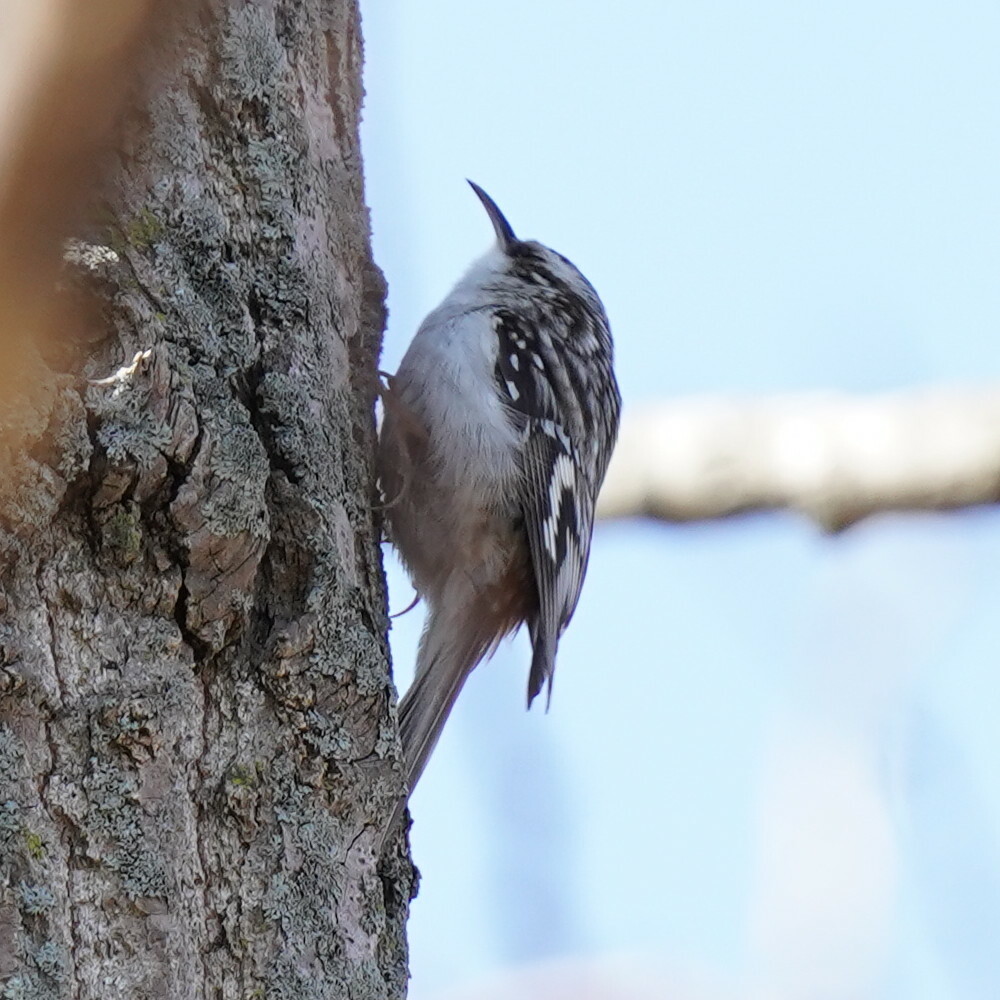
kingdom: Animalia
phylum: Chordata
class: Aves
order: Passeriformes
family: Certhiidae
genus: Certhia
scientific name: Certhia americana
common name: Brown creeper
